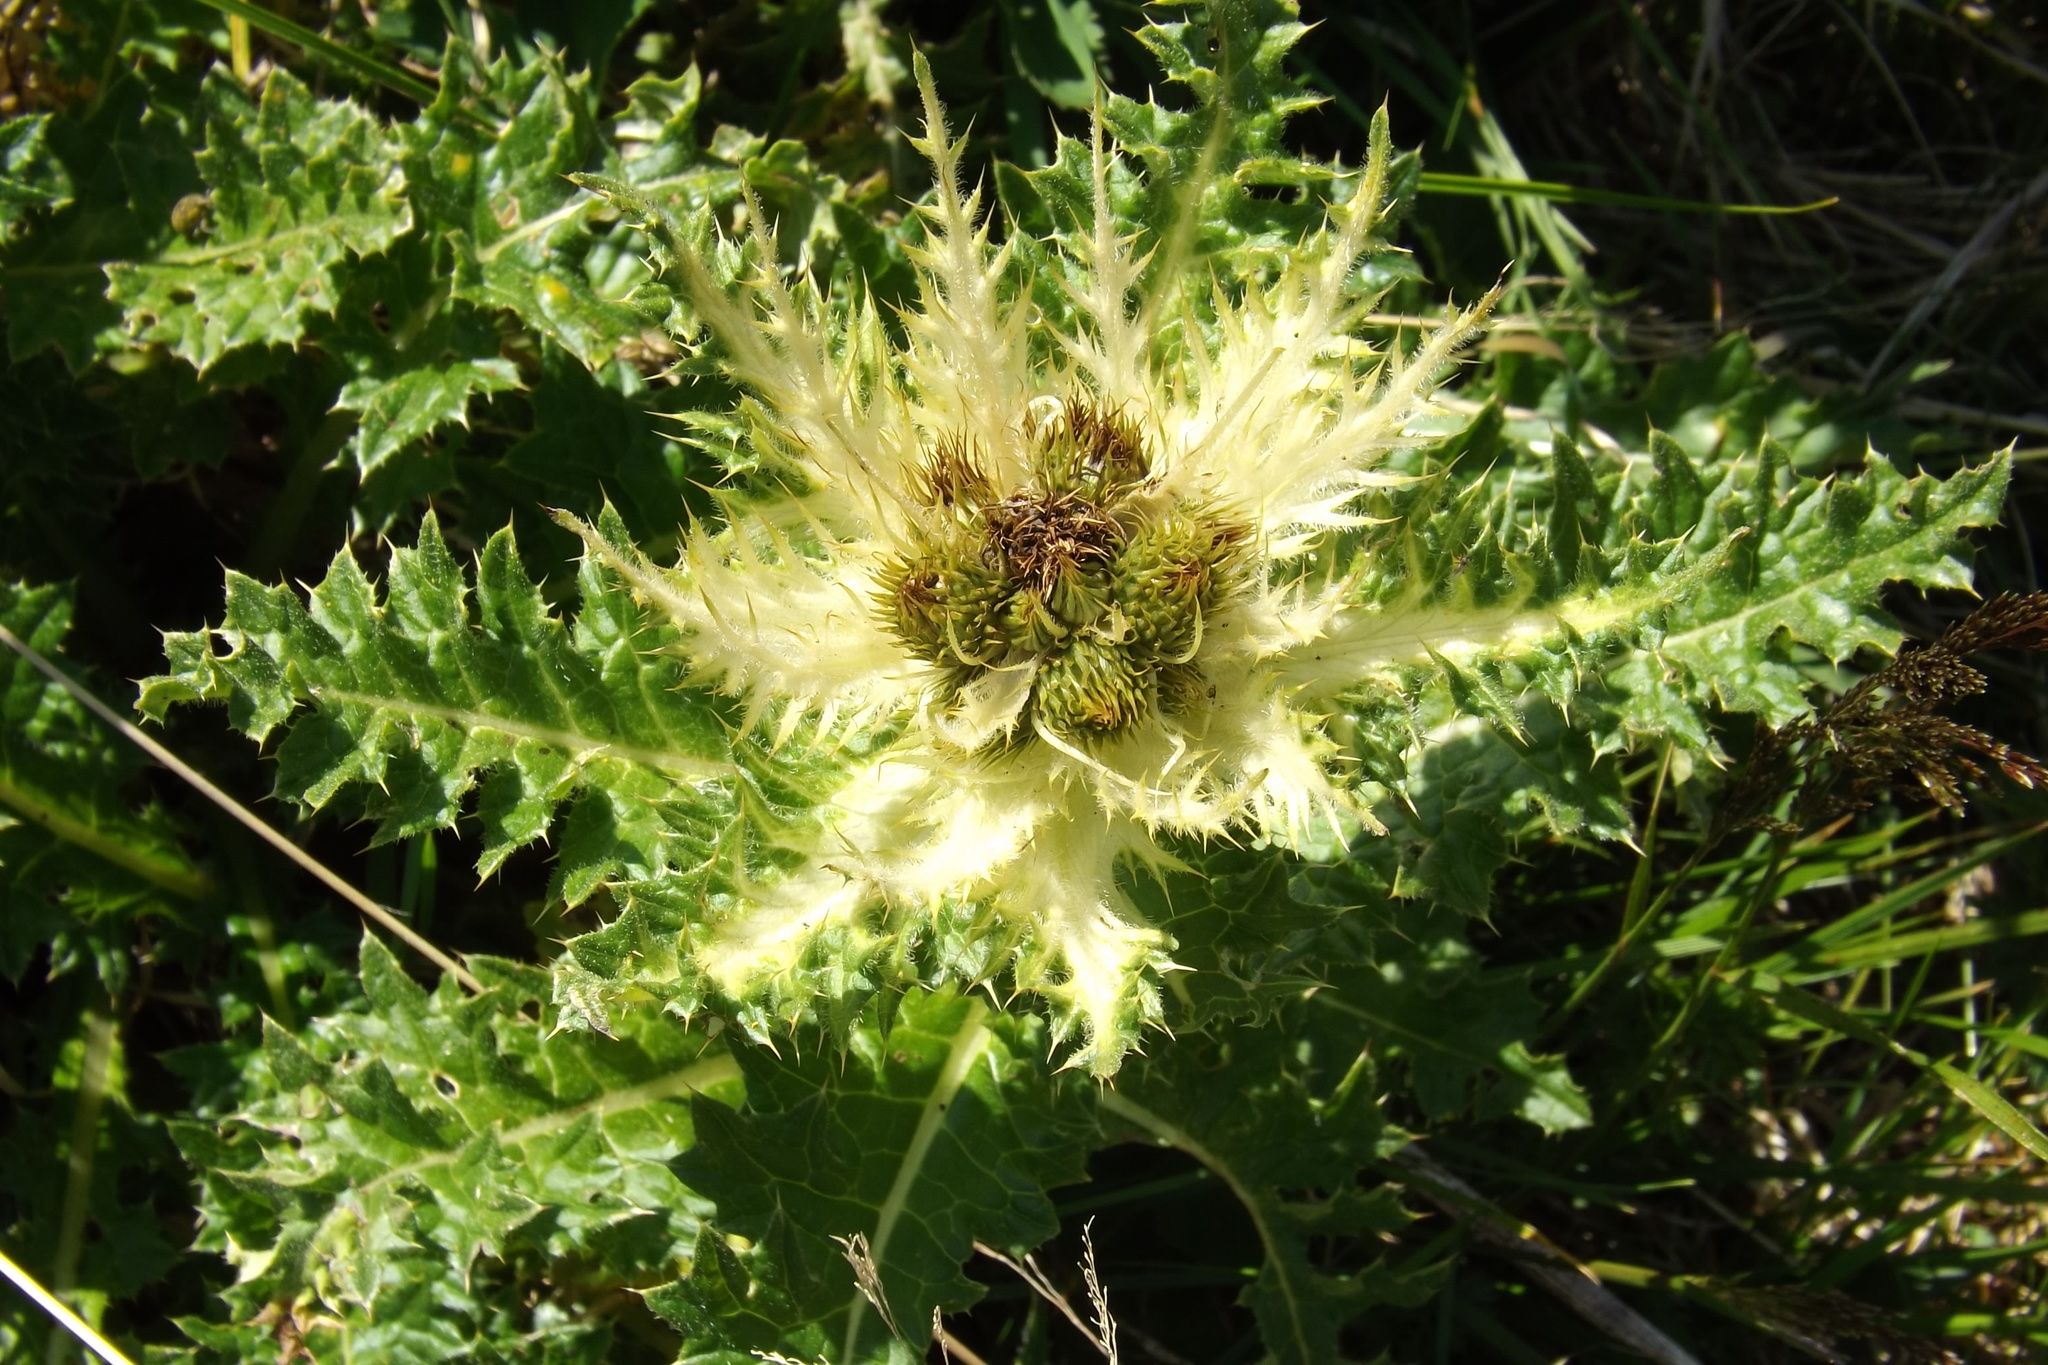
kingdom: Plantae
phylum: Tracheophyta
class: Magnoliopsida
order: Asterales
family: Asteraceae
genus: Cirsium
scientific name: Cirsium spinosissimum
